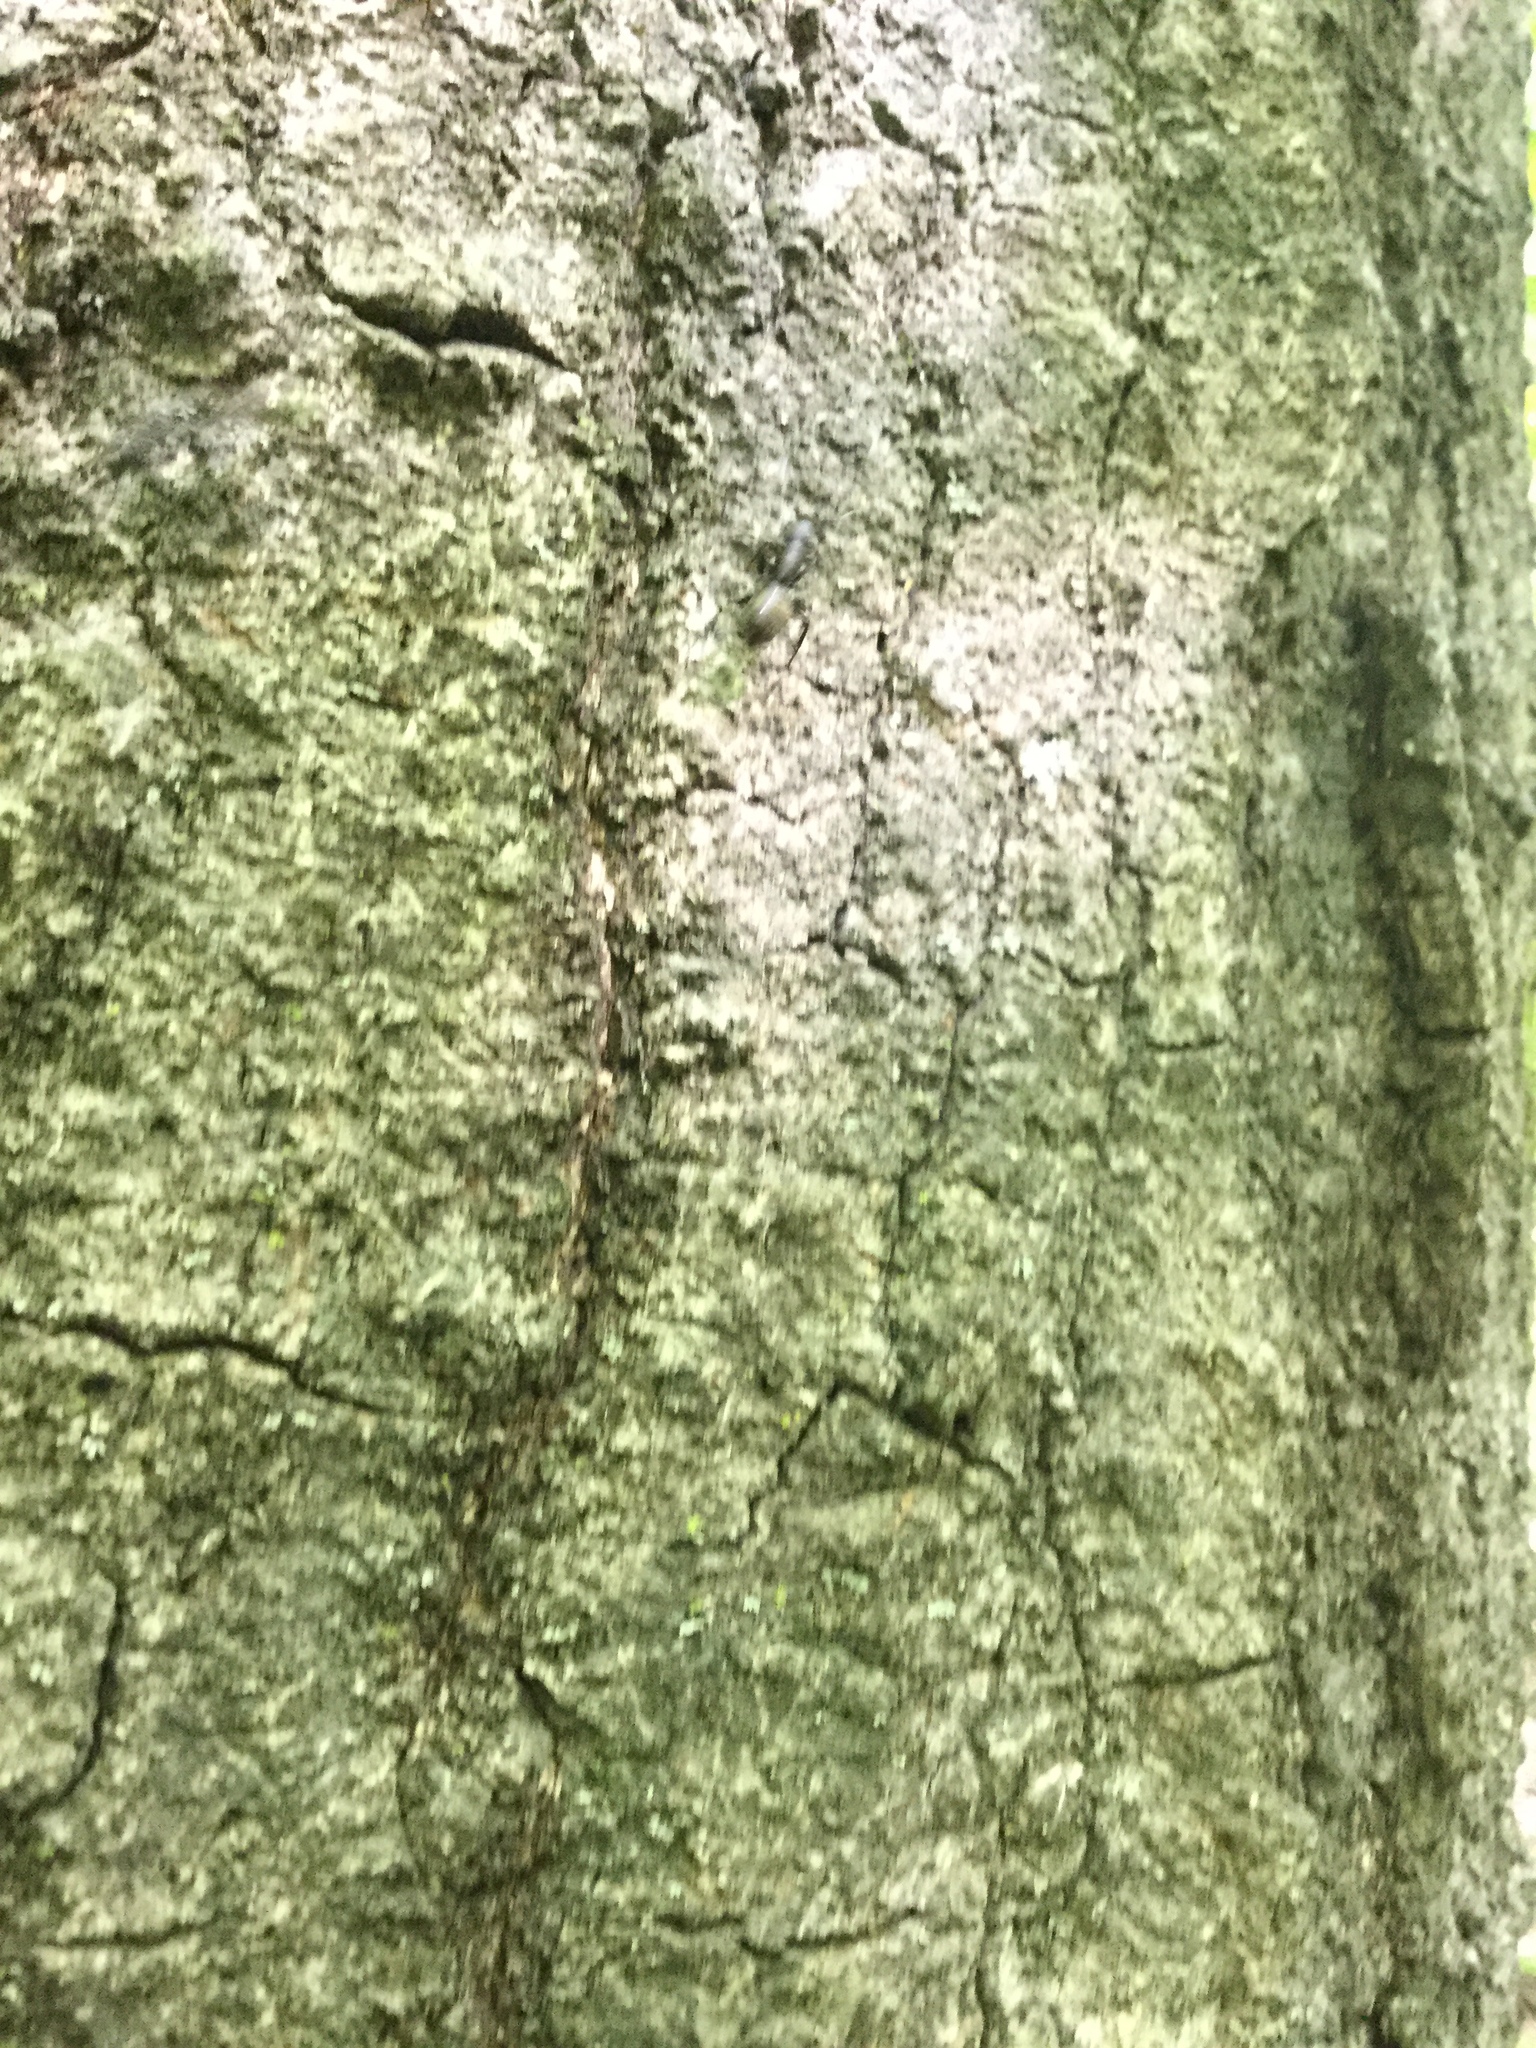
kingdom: Animalia
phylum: Arthropoda
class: Insecta
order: Hymenoptera
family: Formicidae
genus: Camponotus
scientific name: Camponotus pennsylvanicus
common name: Black carpenter ant
